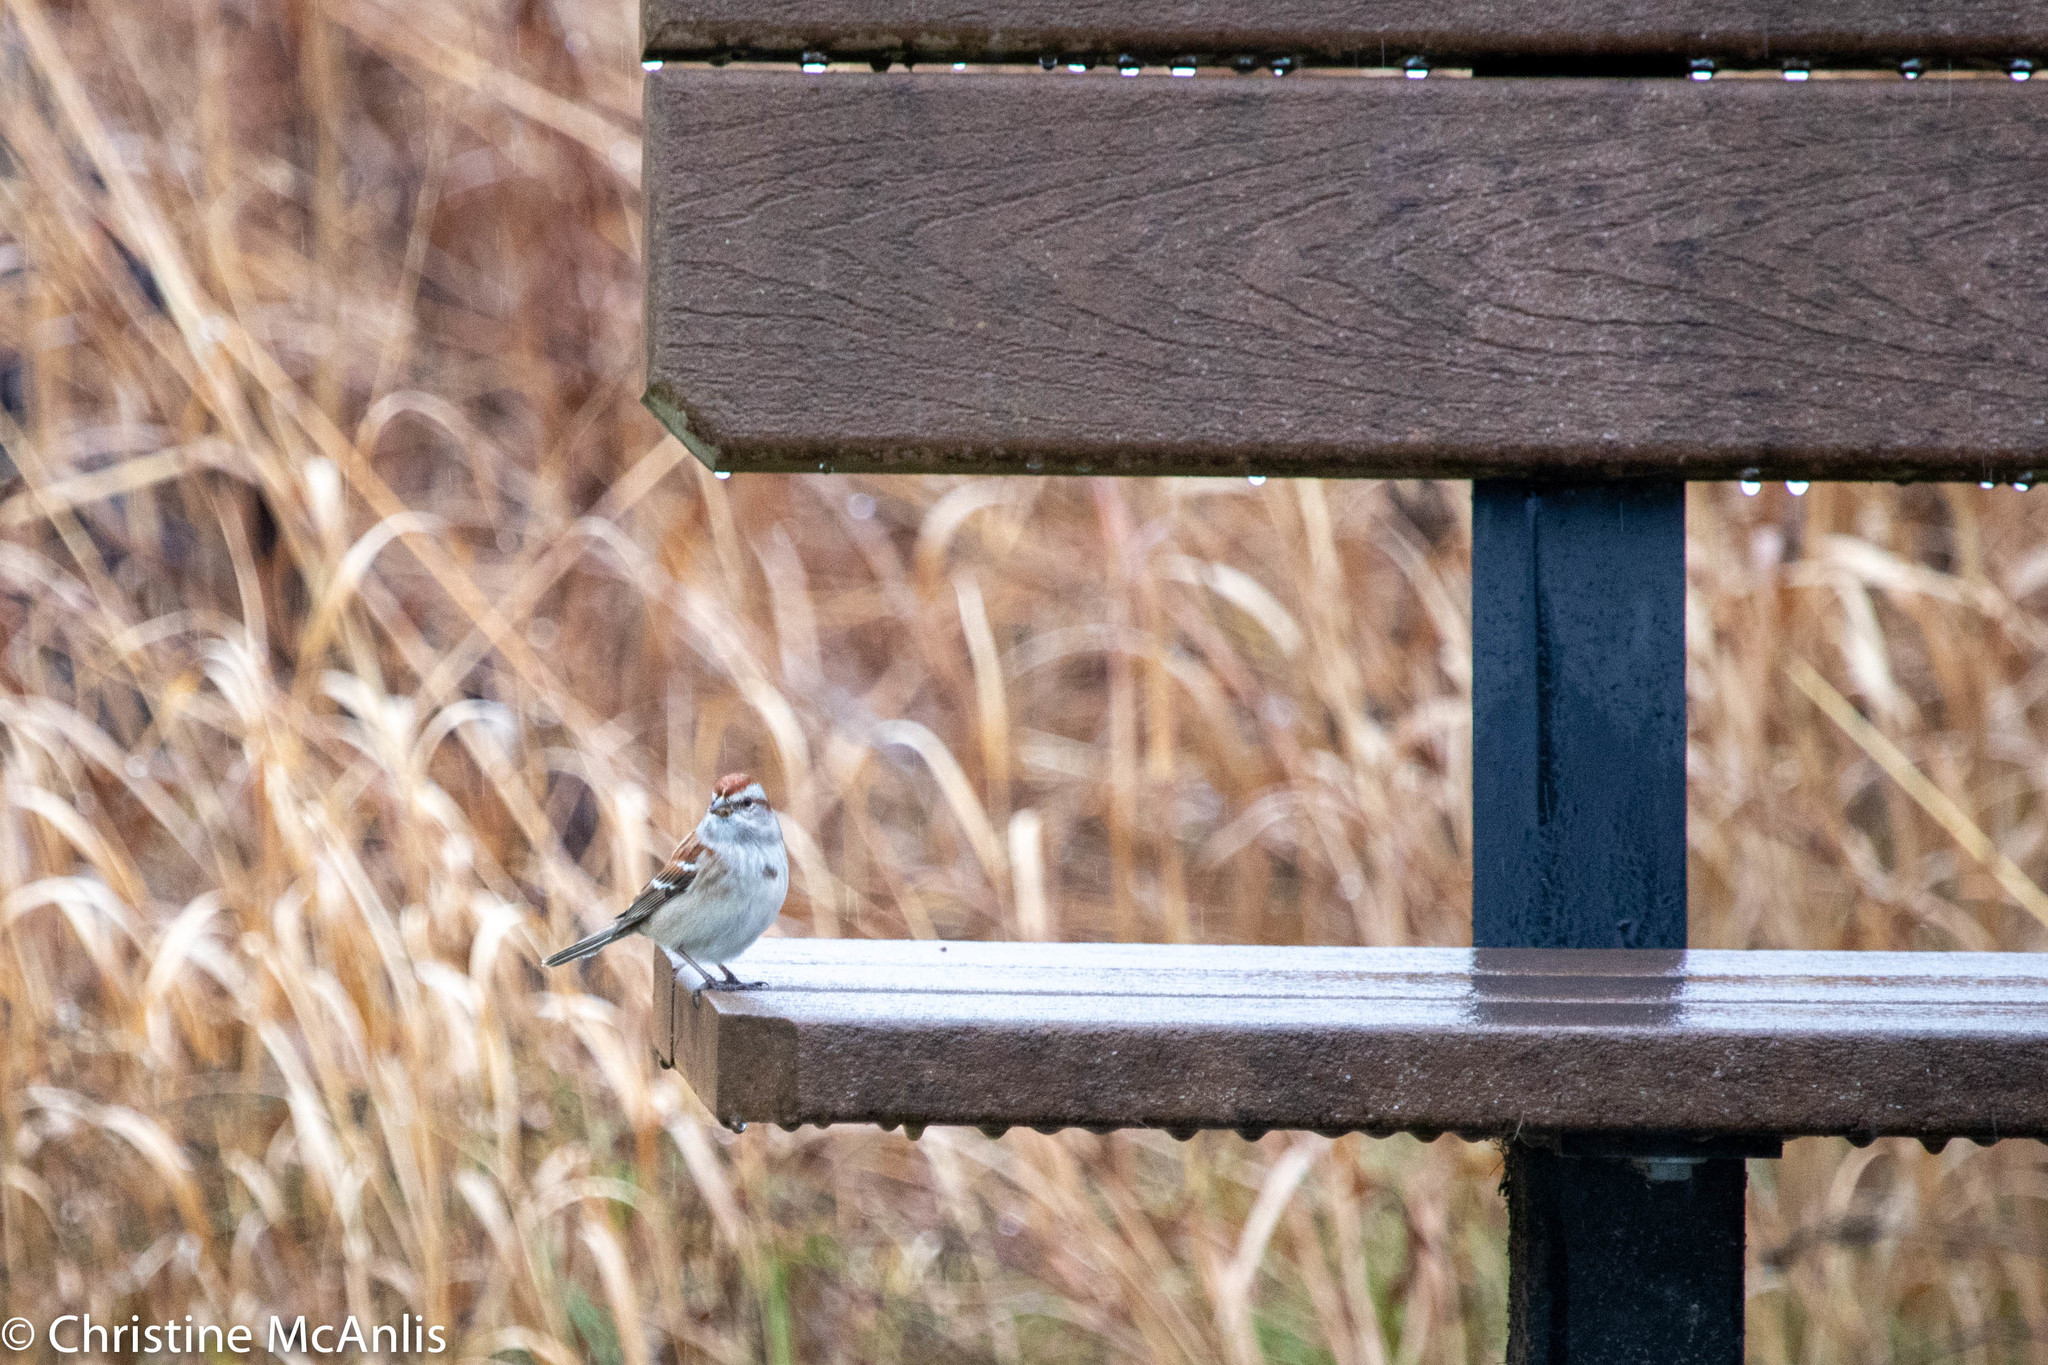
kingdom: Animalia
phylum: Chordata
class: Aves
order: Passeriformes
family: Passerellidae
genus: Spizelloides
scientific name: Spizelloides arborea
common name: American tree sparrow
